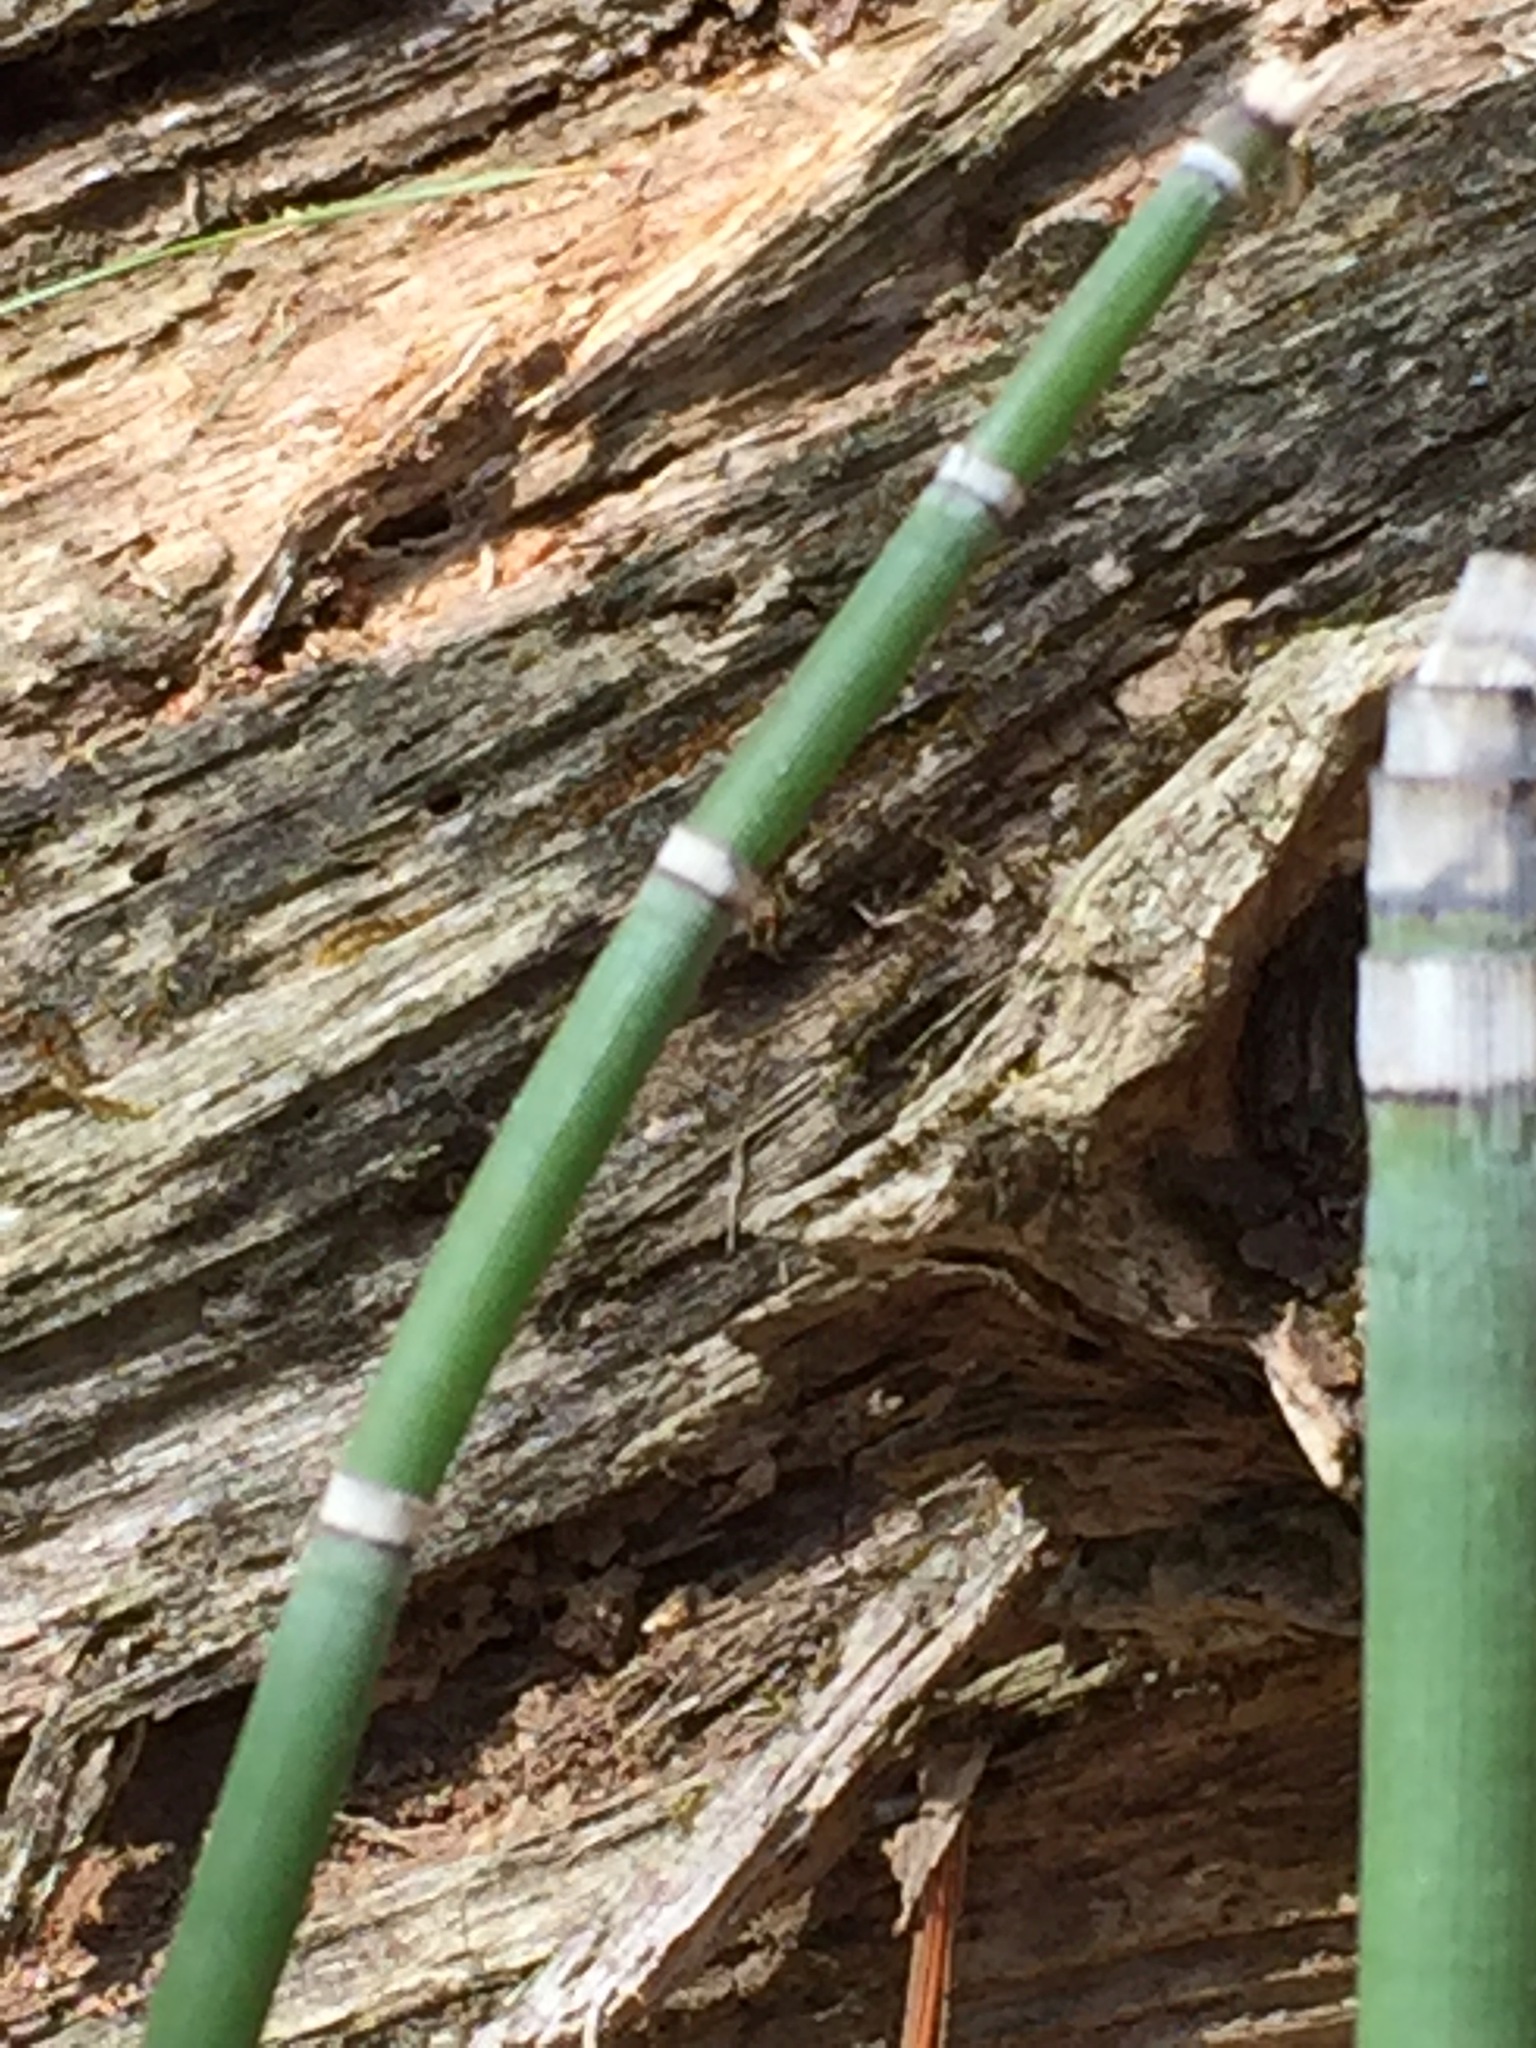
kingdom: Plantae
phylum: Tracheophyta
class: Polypodiopsida
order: Equisetales
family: Equisetaceae
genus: Equisetum
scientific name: Equisetum praealtum
